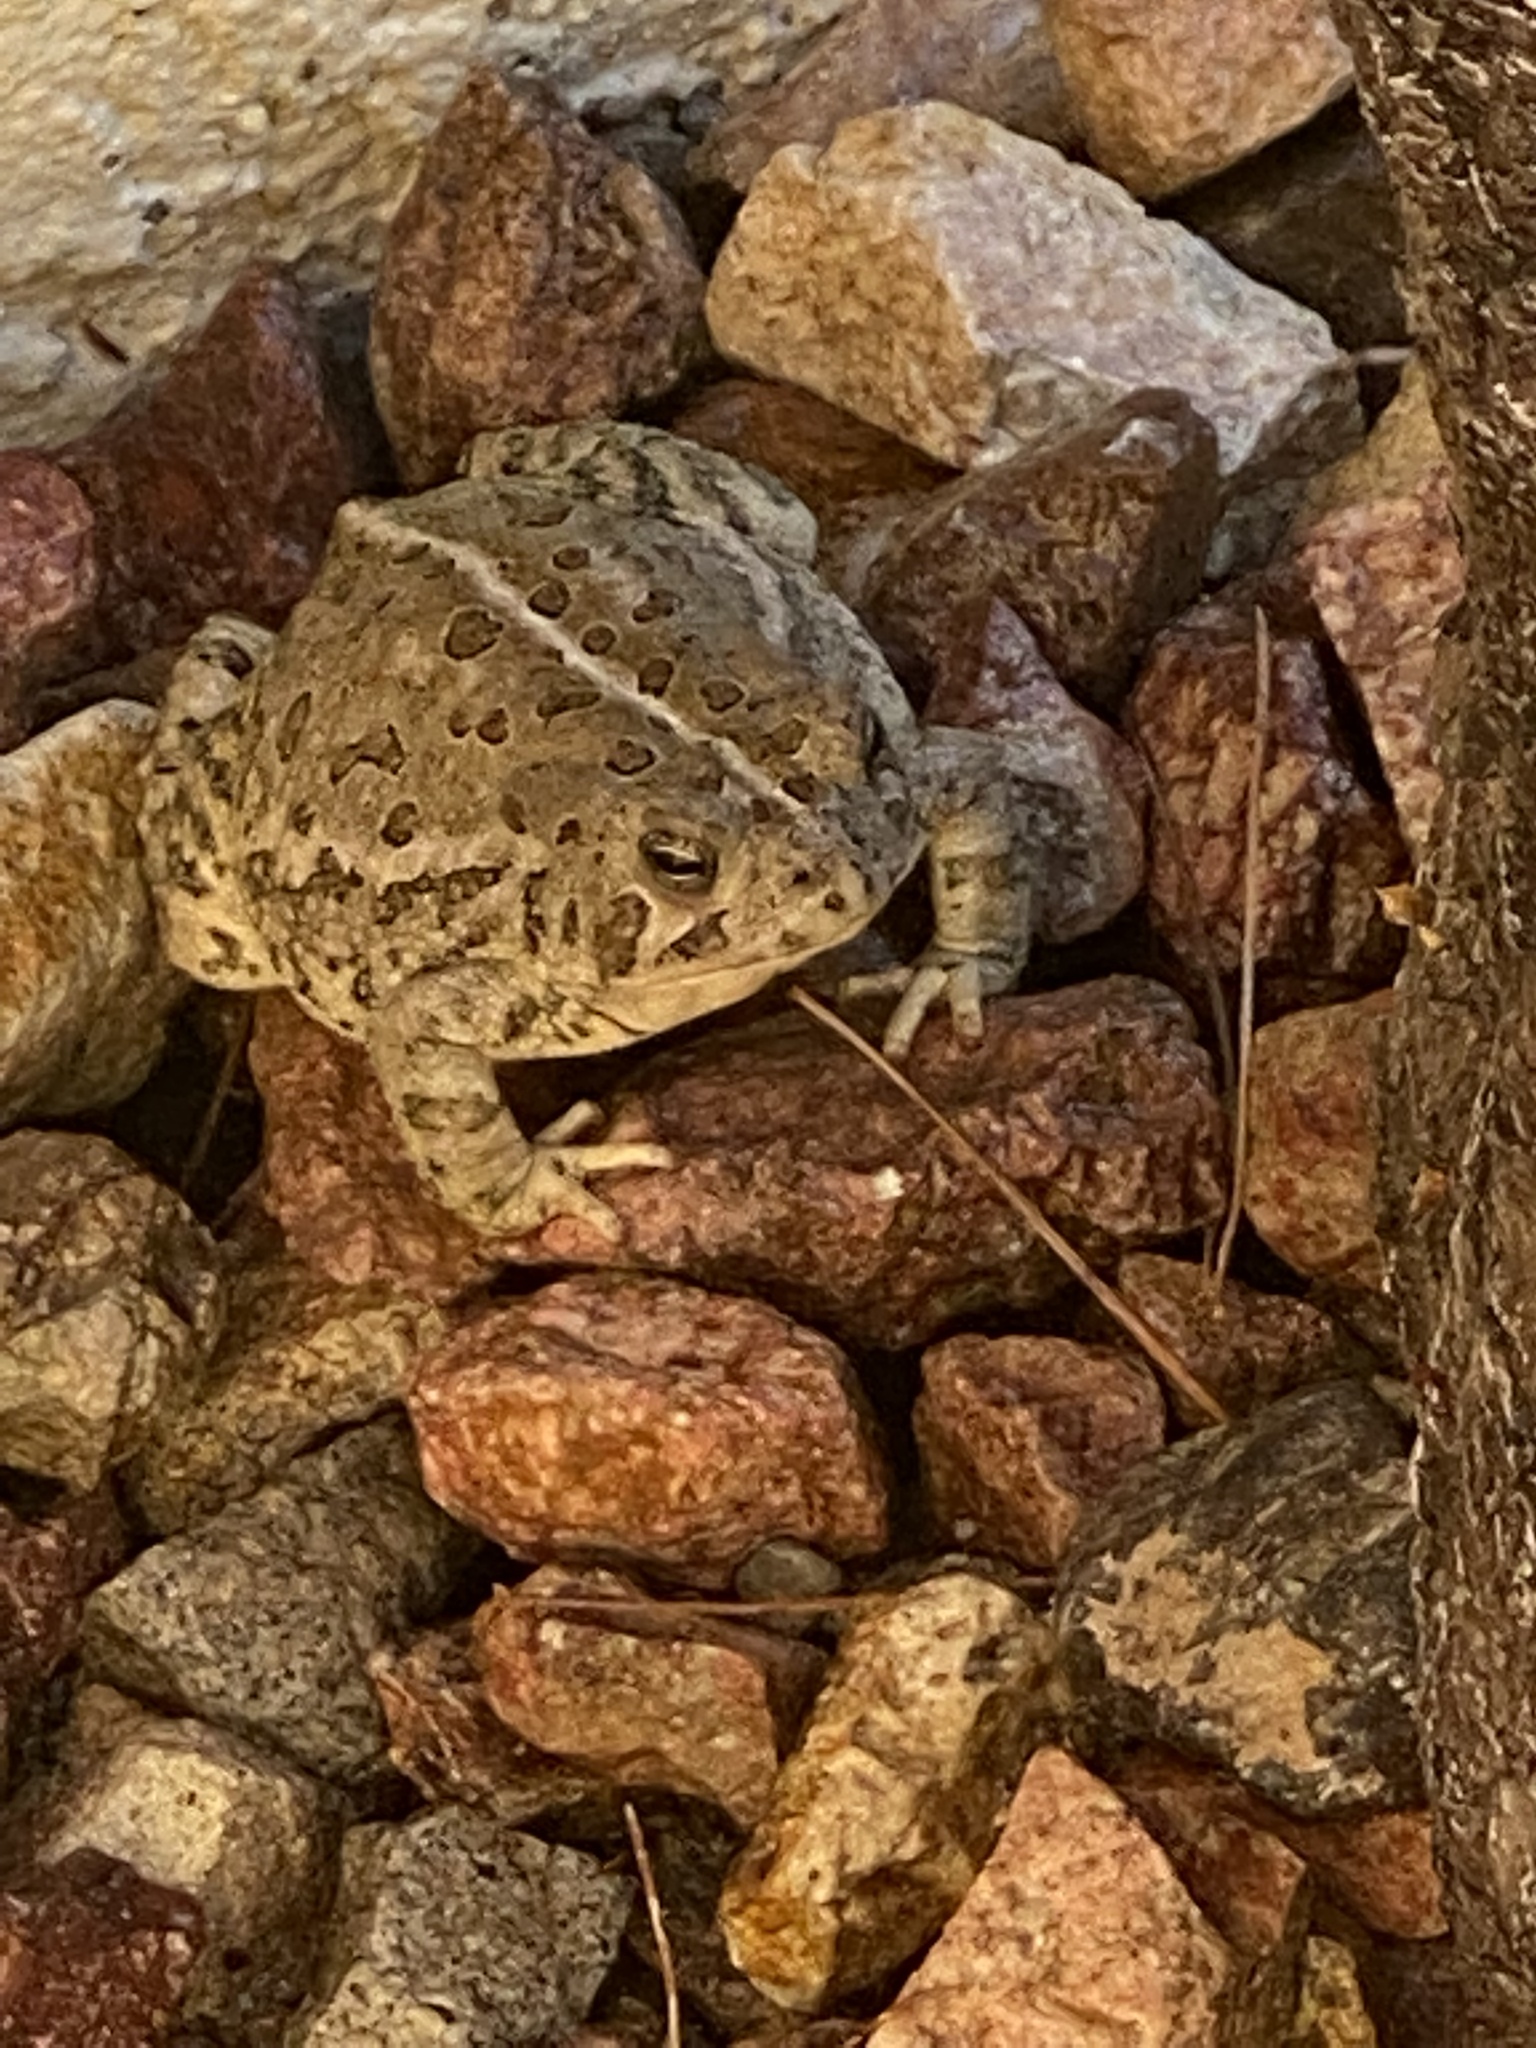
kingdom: Animalia
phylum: Chordata
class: Amphibia
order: Anura
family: Bufonidae
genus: Anaxyrus
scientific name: Anaxyrus woodhousii
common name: Woodhouse's toad
